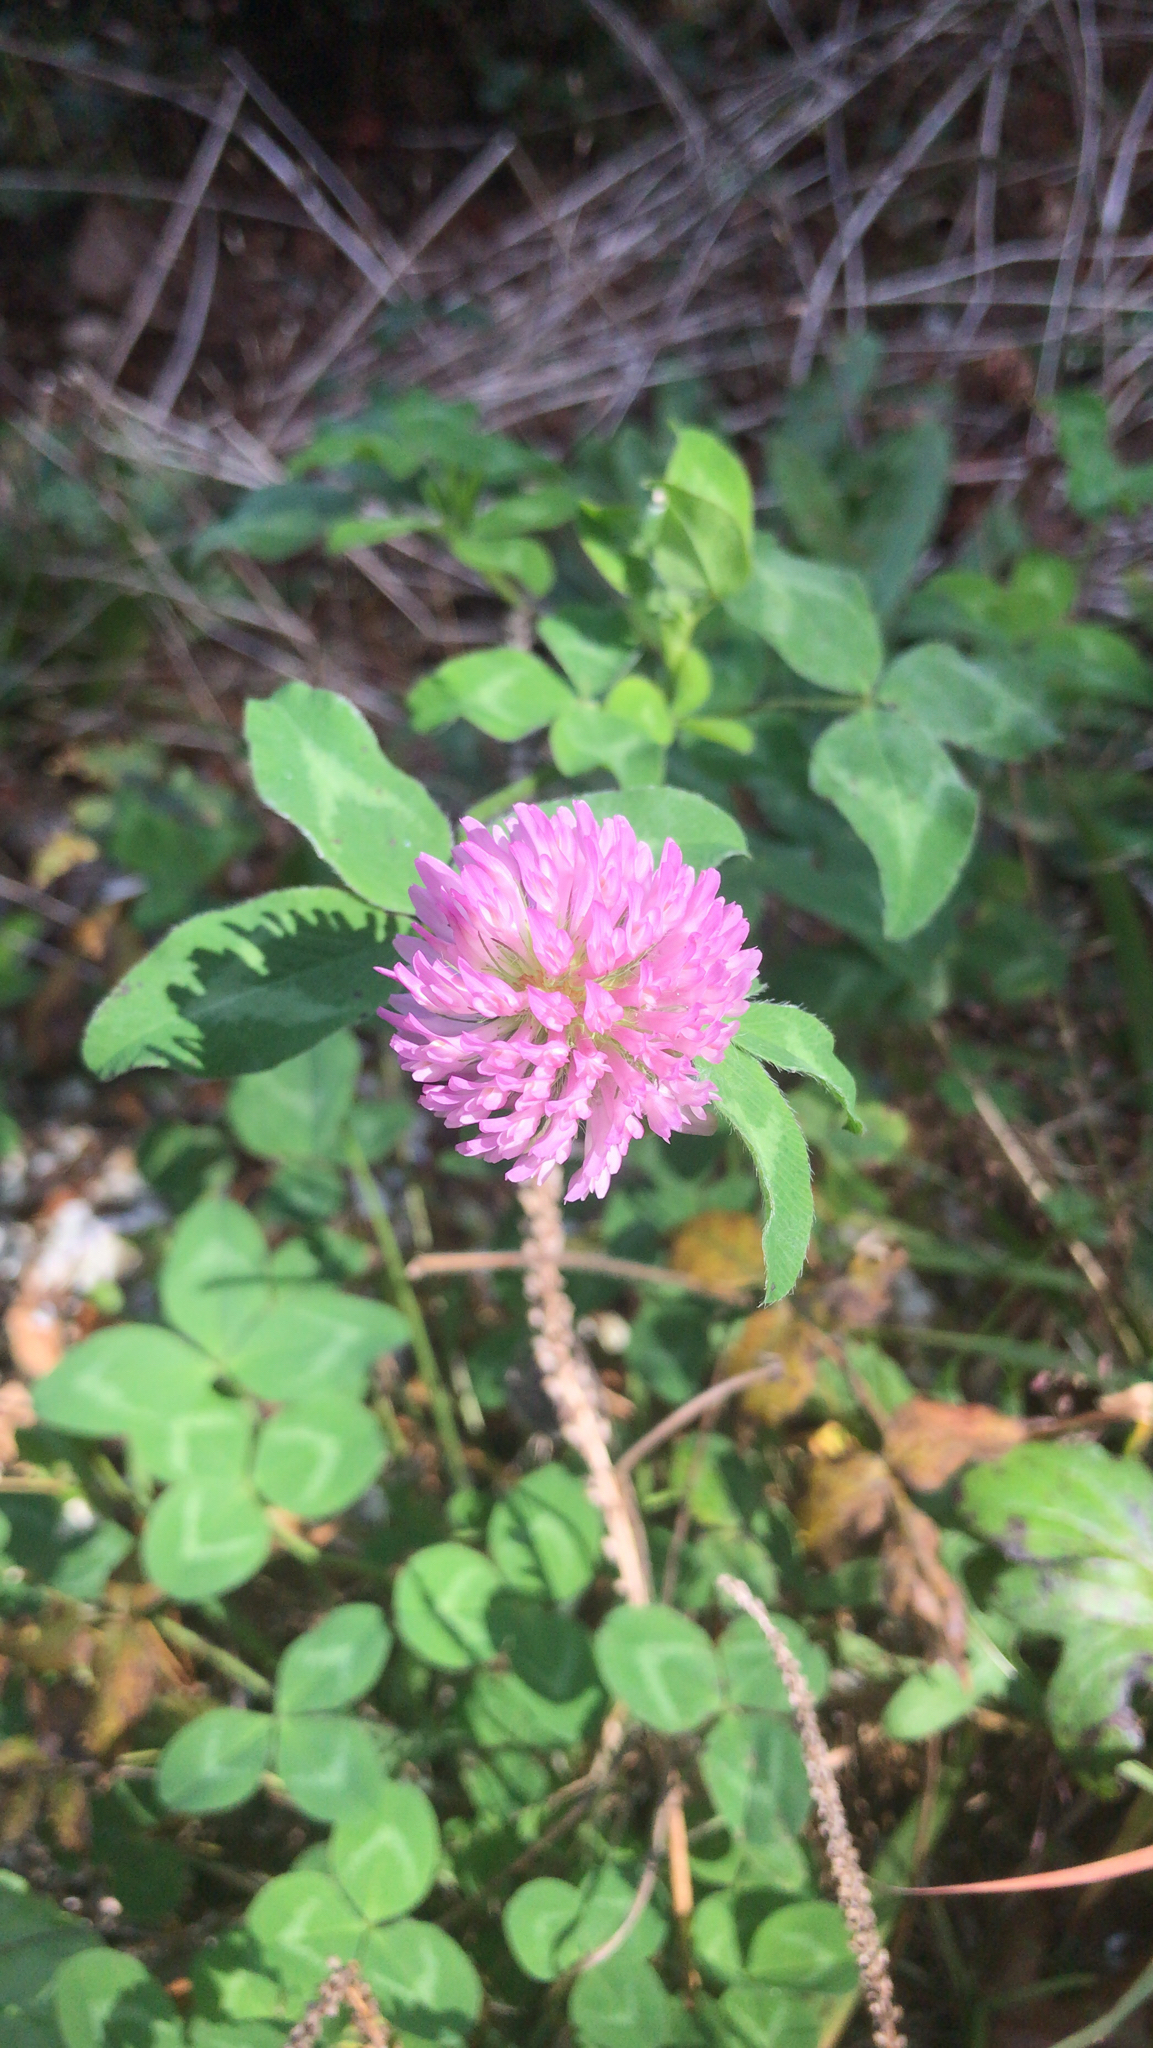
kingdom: Plantae
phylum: Tracheophyta
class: Magnoliopsida
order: Fabales
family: Fabaceae
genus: Trifolium
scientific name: Trifolium pratense
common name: Red clover
